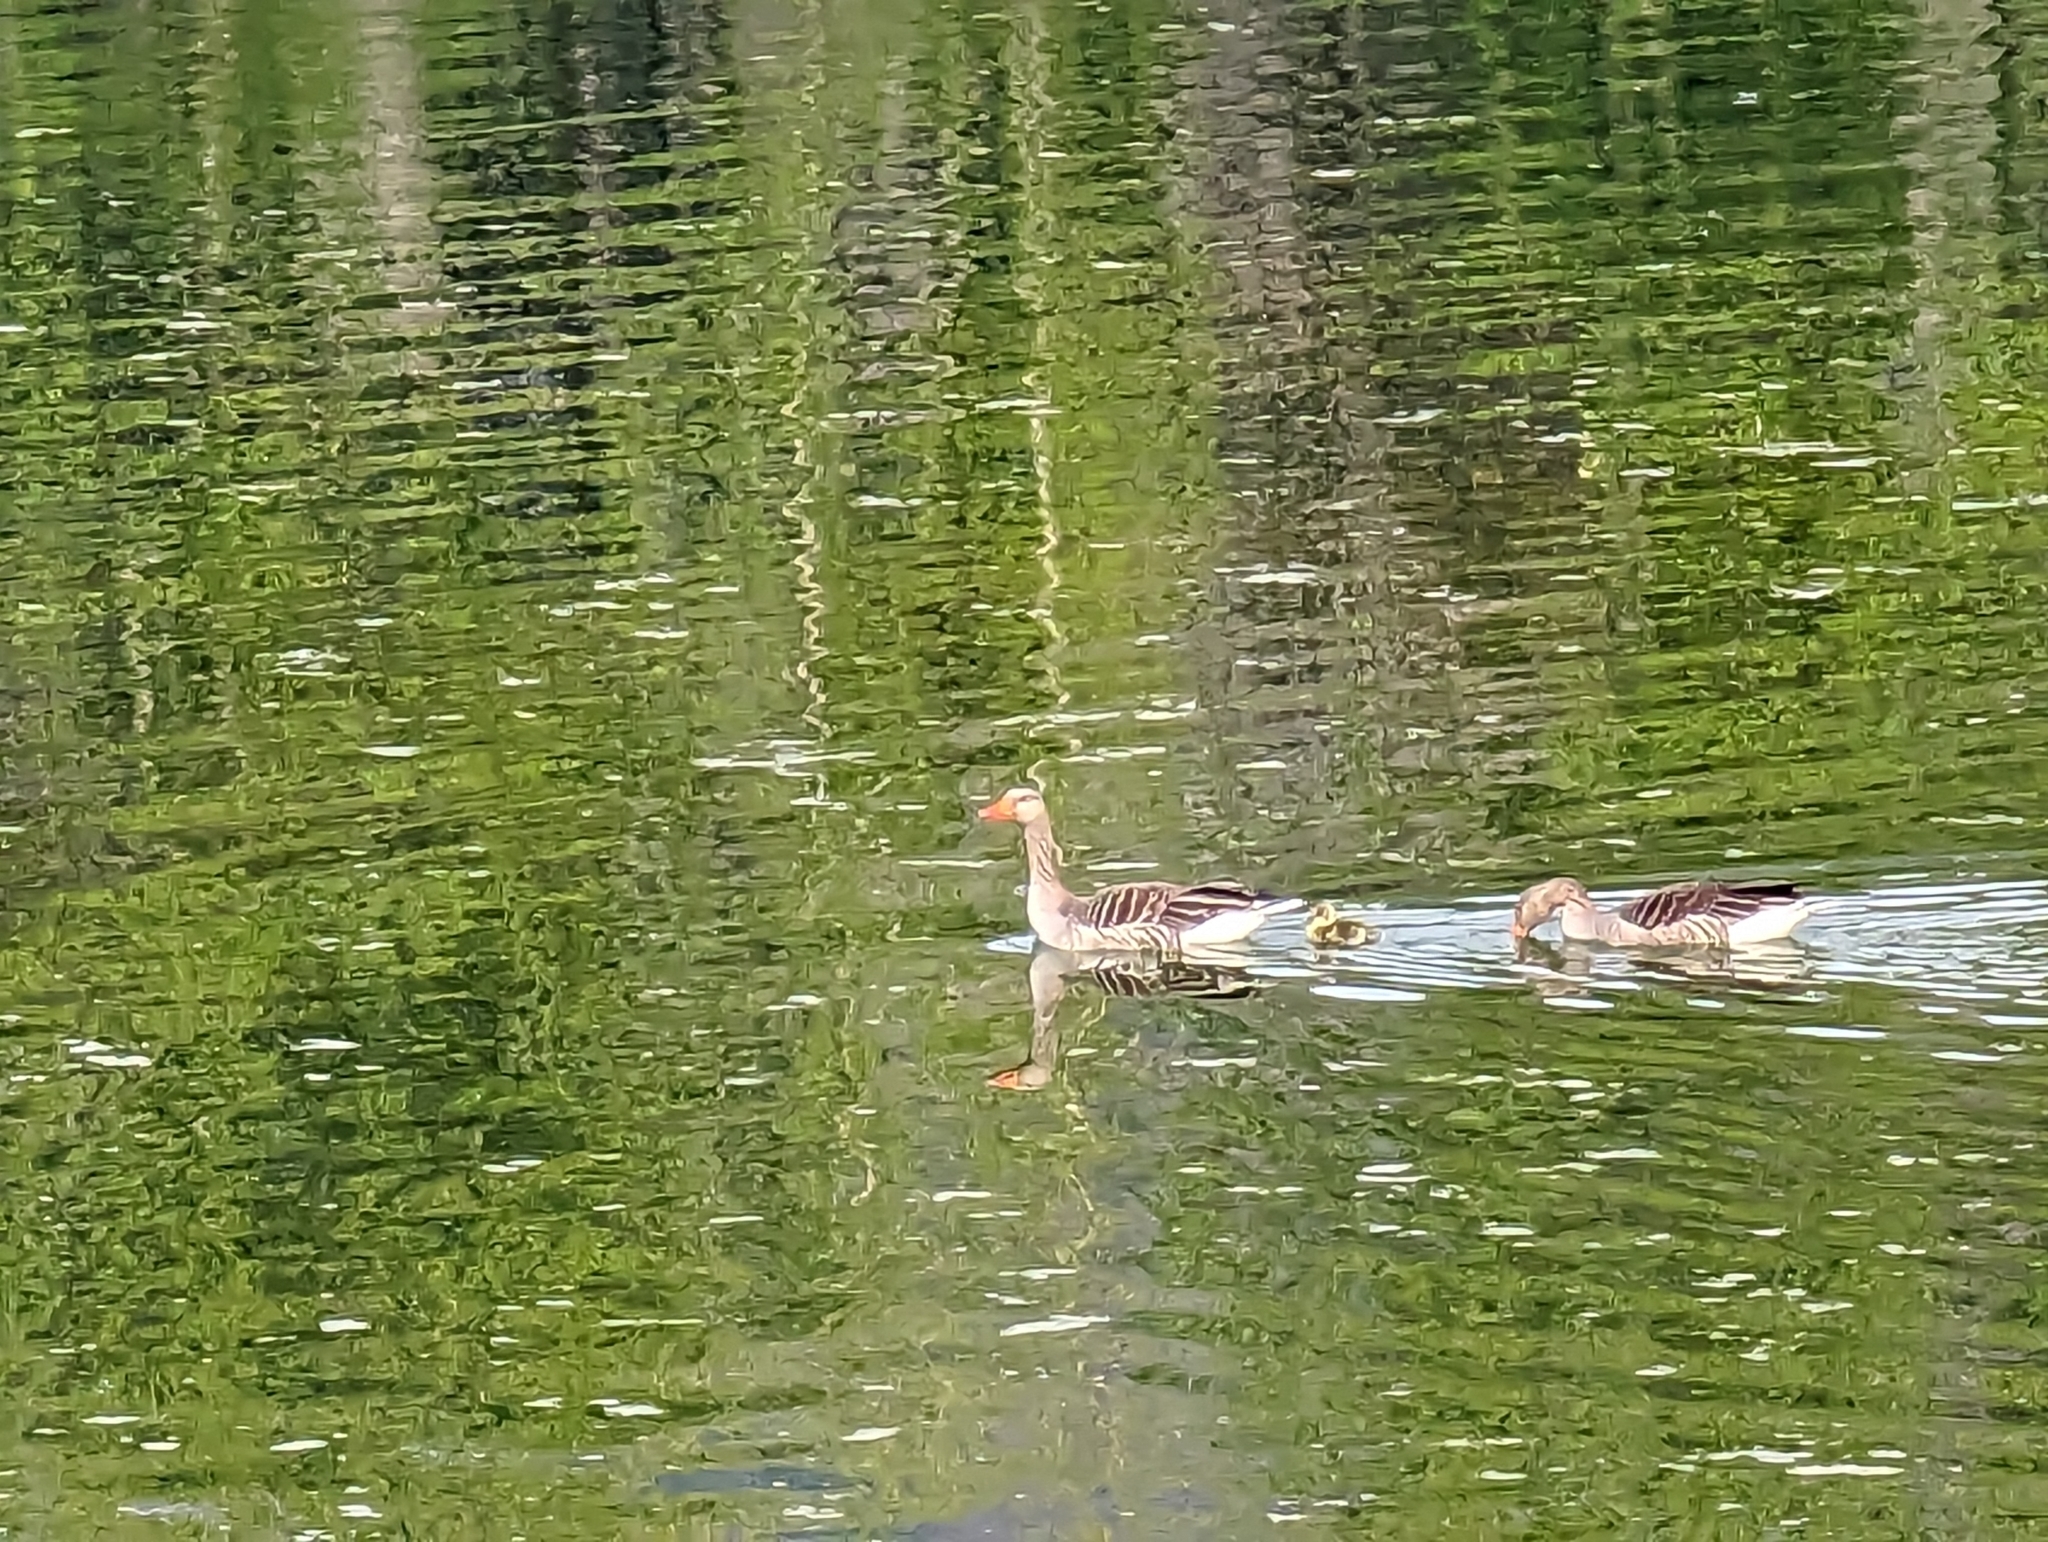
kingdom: Animalia
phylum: Chordata
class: Aves
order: Anseriformes
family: Anatidae
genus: Anser
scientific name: Anser anser
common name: Greylag goose
